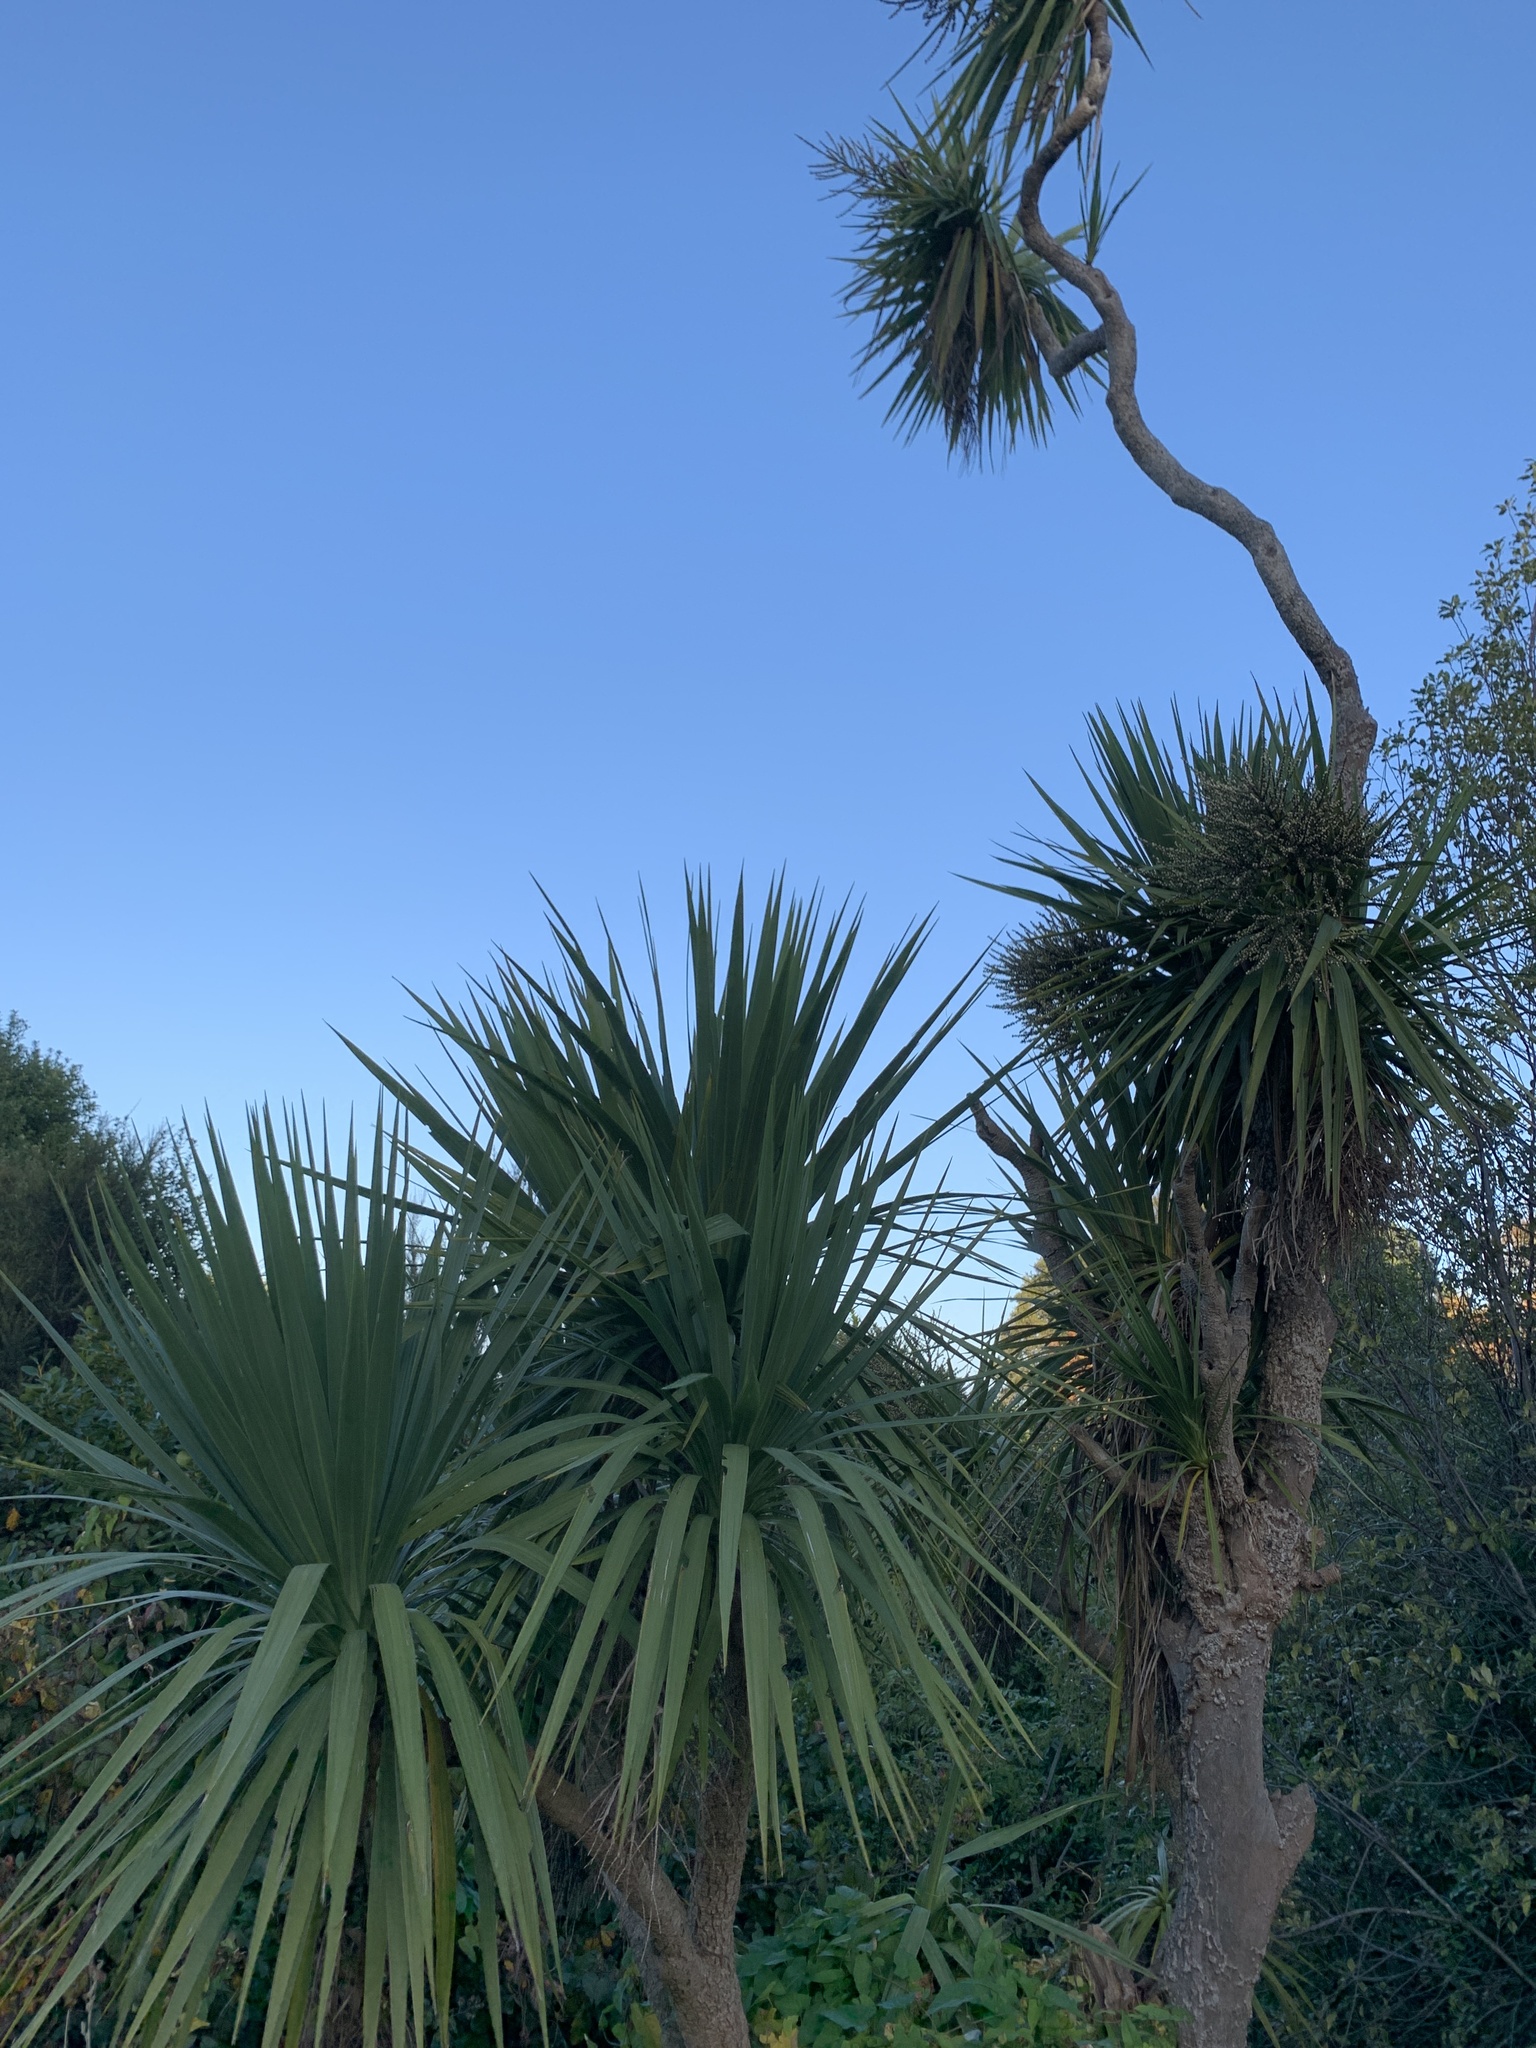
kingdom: Plantae
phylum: Tracheophyta
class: Liliopsida
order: Asparagales
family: Asparagaceae
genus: Cordyline
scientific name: Cordyline australis
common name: Cabbage-palm
